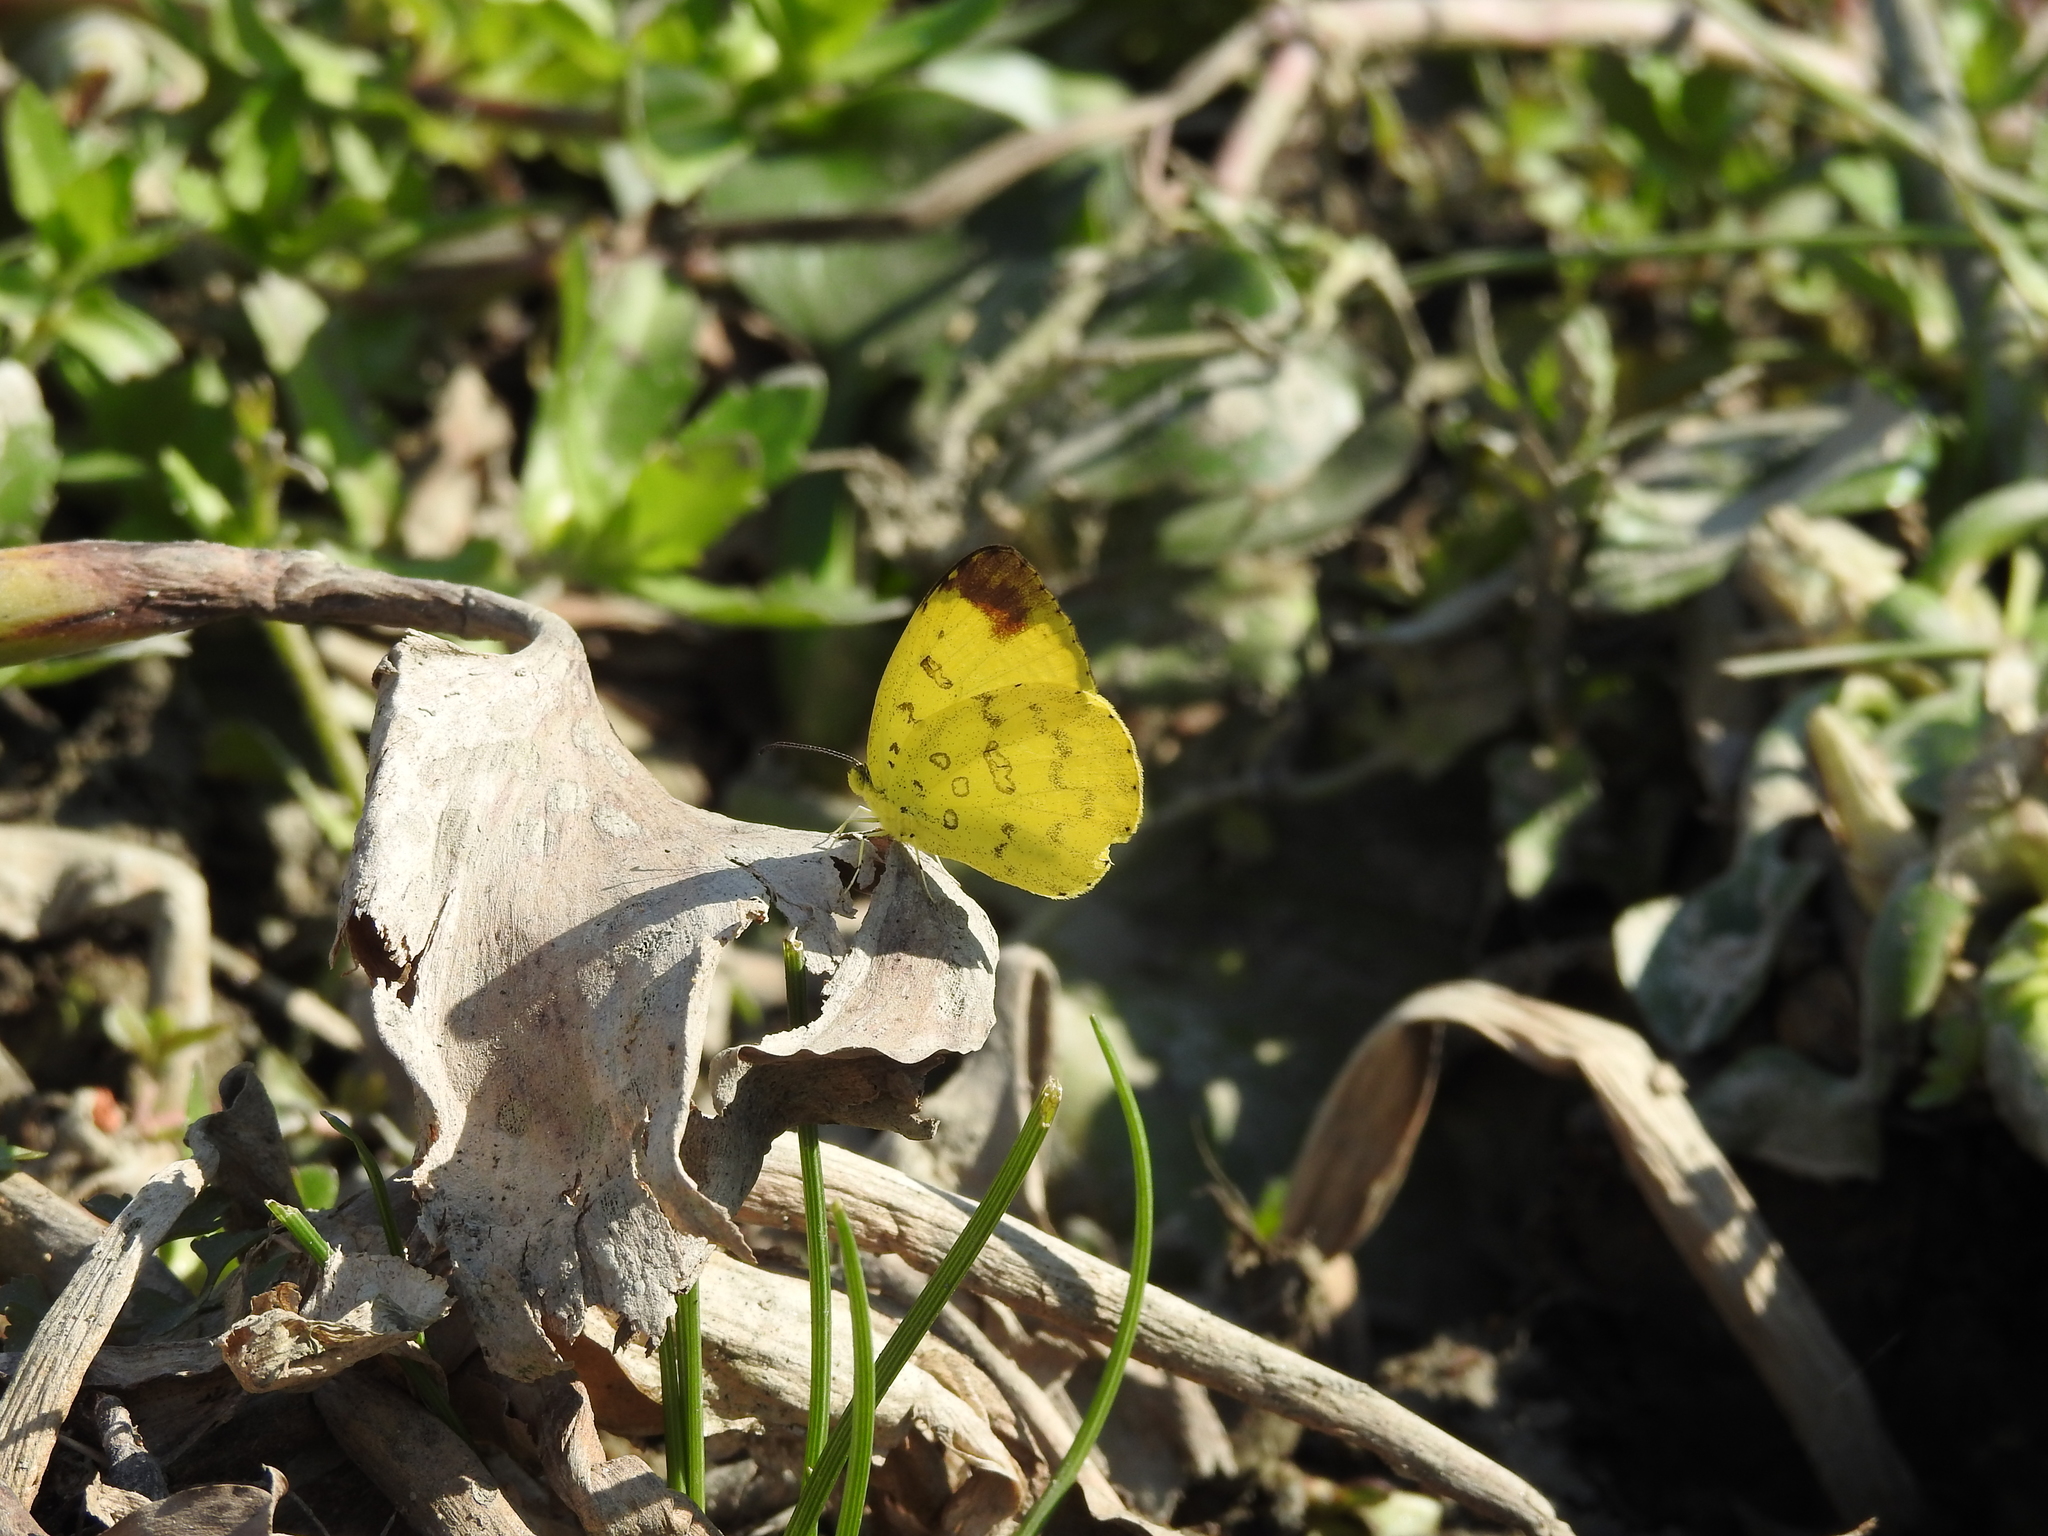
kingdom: Animalia
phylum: Arthropoda
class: Insecta
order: Lepidoptera
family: Pieridae
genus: Eurema
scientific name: Eurema blanda
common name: Three-spot grass yellow
